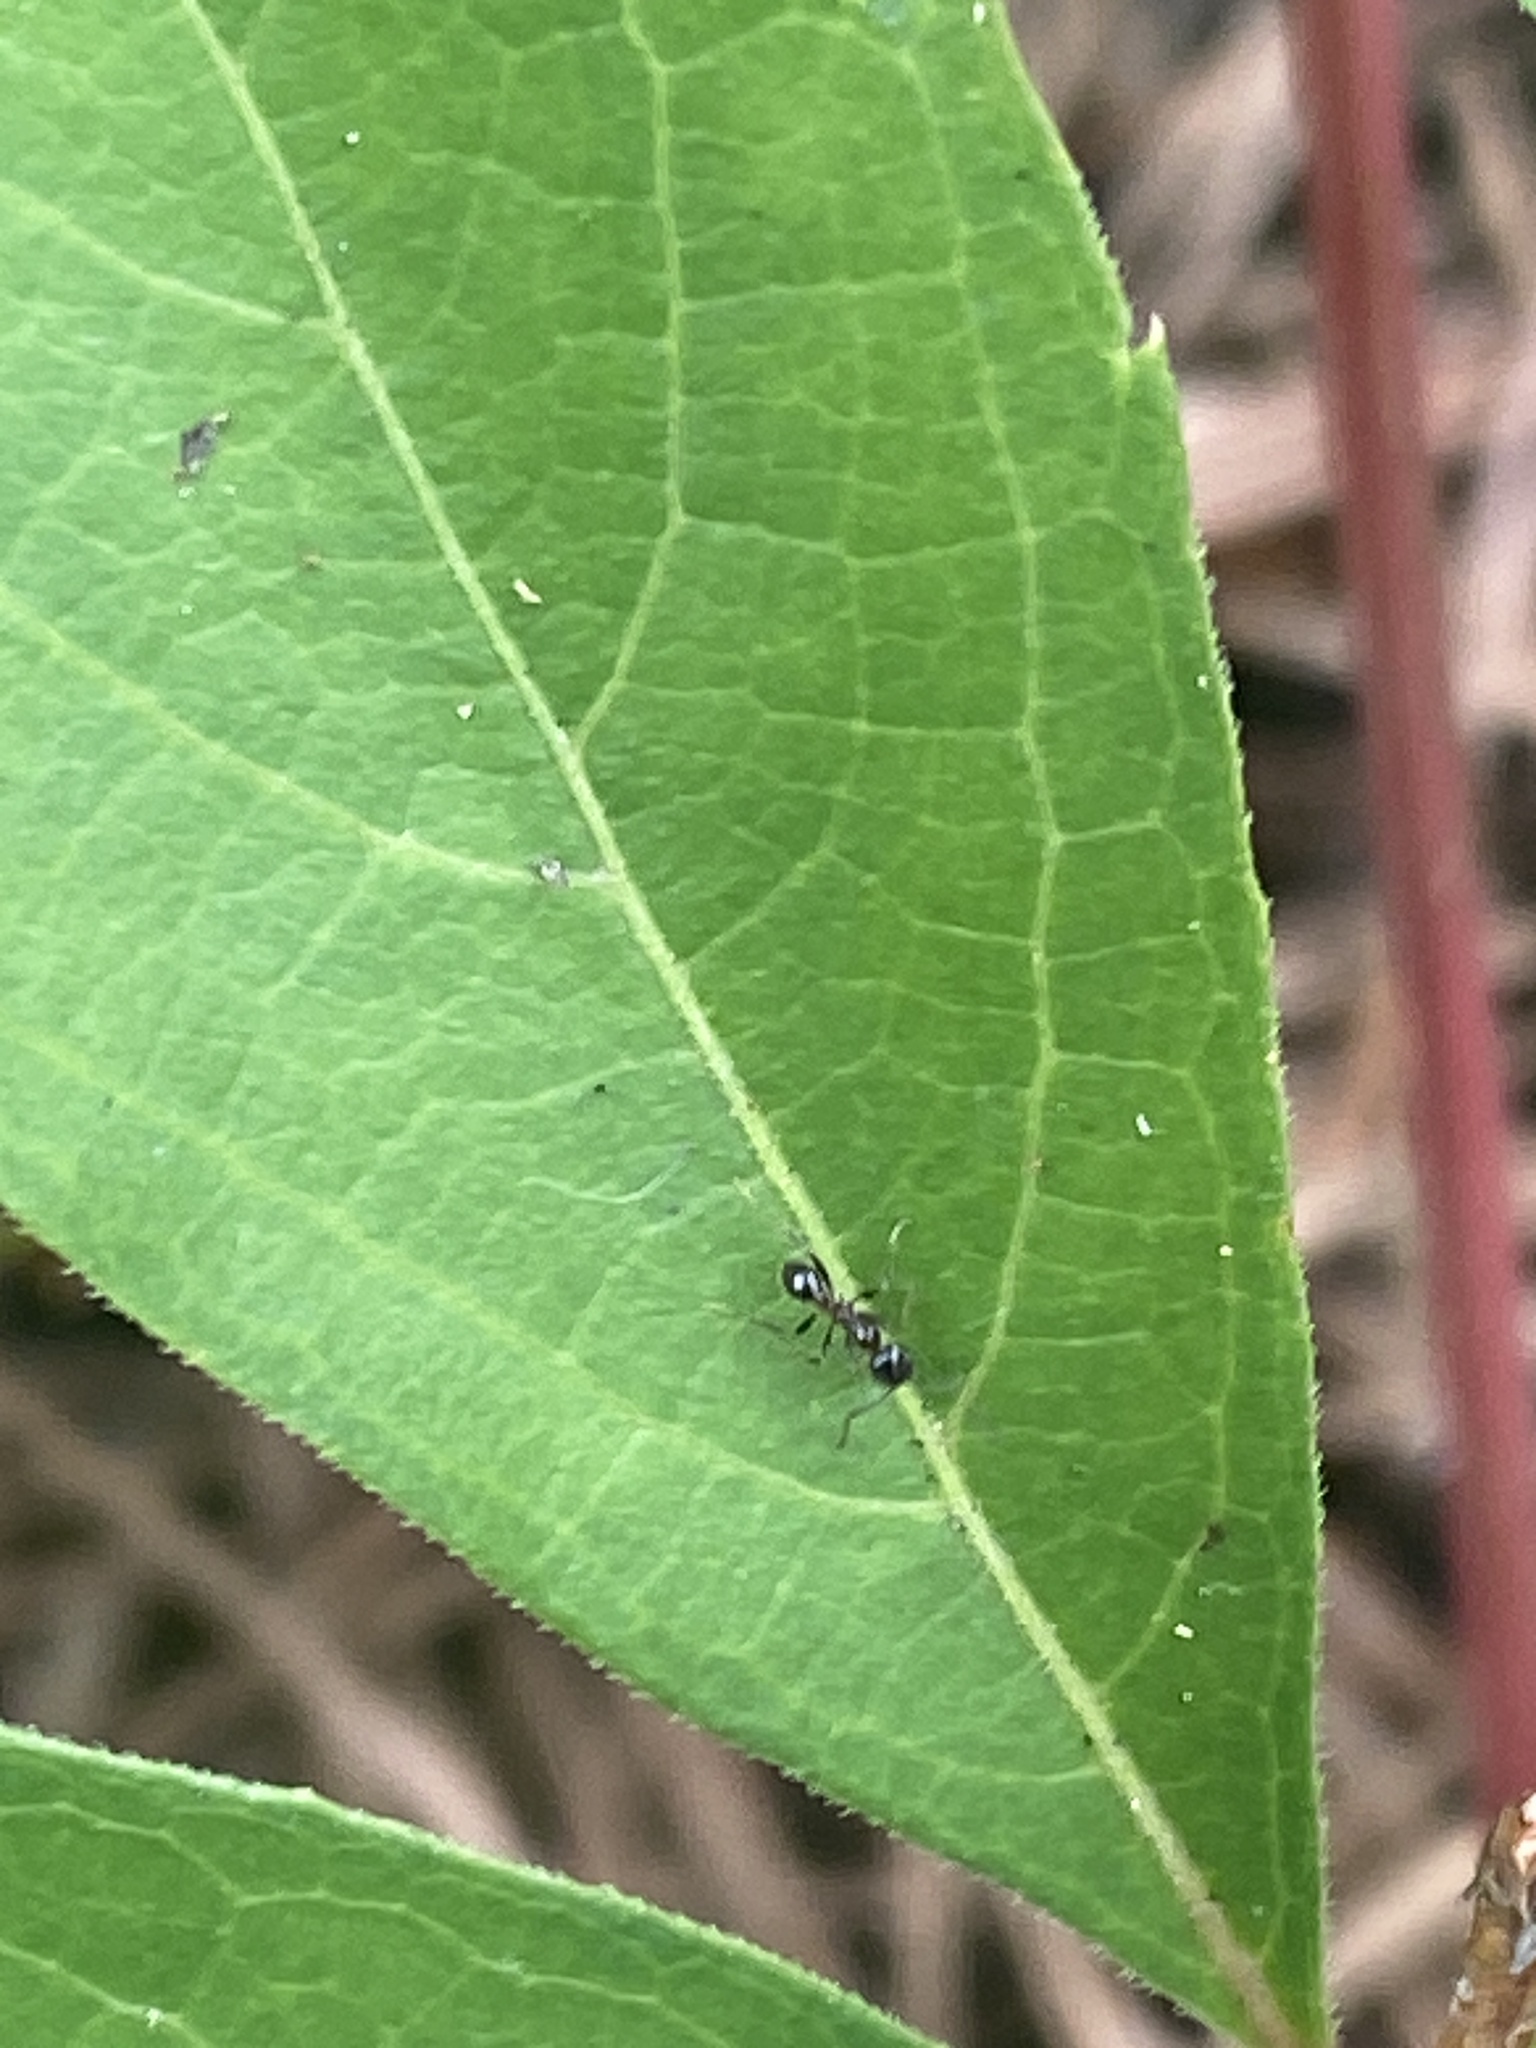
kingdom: Animalia
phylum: Arthropoda
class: Insecta
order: Hymenoptera
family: Formicidae
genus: Pheidole
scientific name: Pheidole dentata
